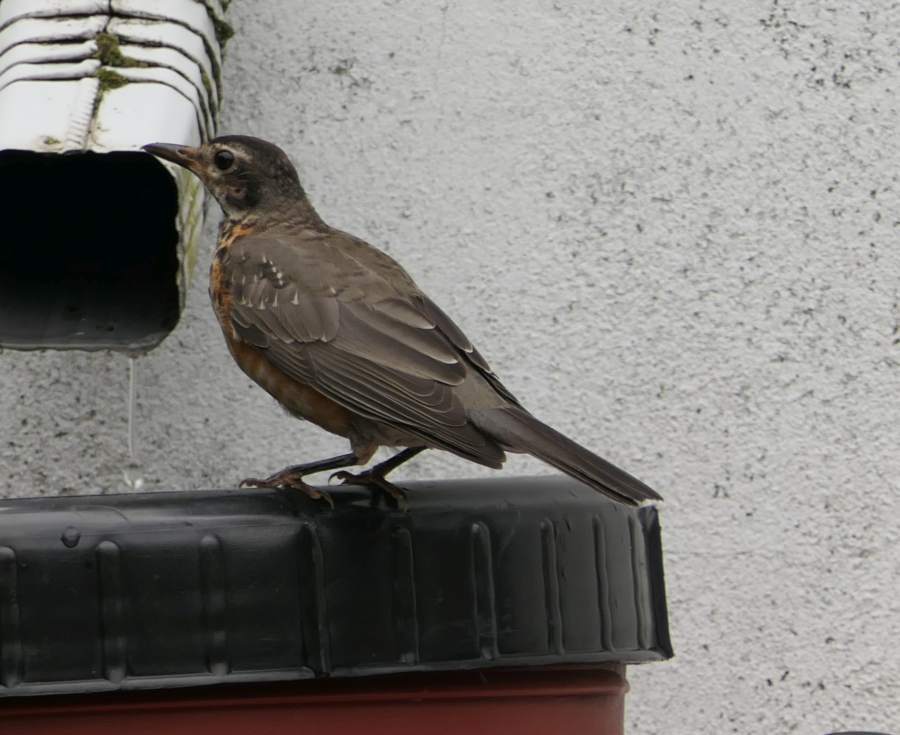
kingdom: Animalia
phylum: Chordata
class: Aves
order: Passeriformes
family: Turdidae
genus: Turdus
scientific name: Turdus migratorius
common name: American robin
